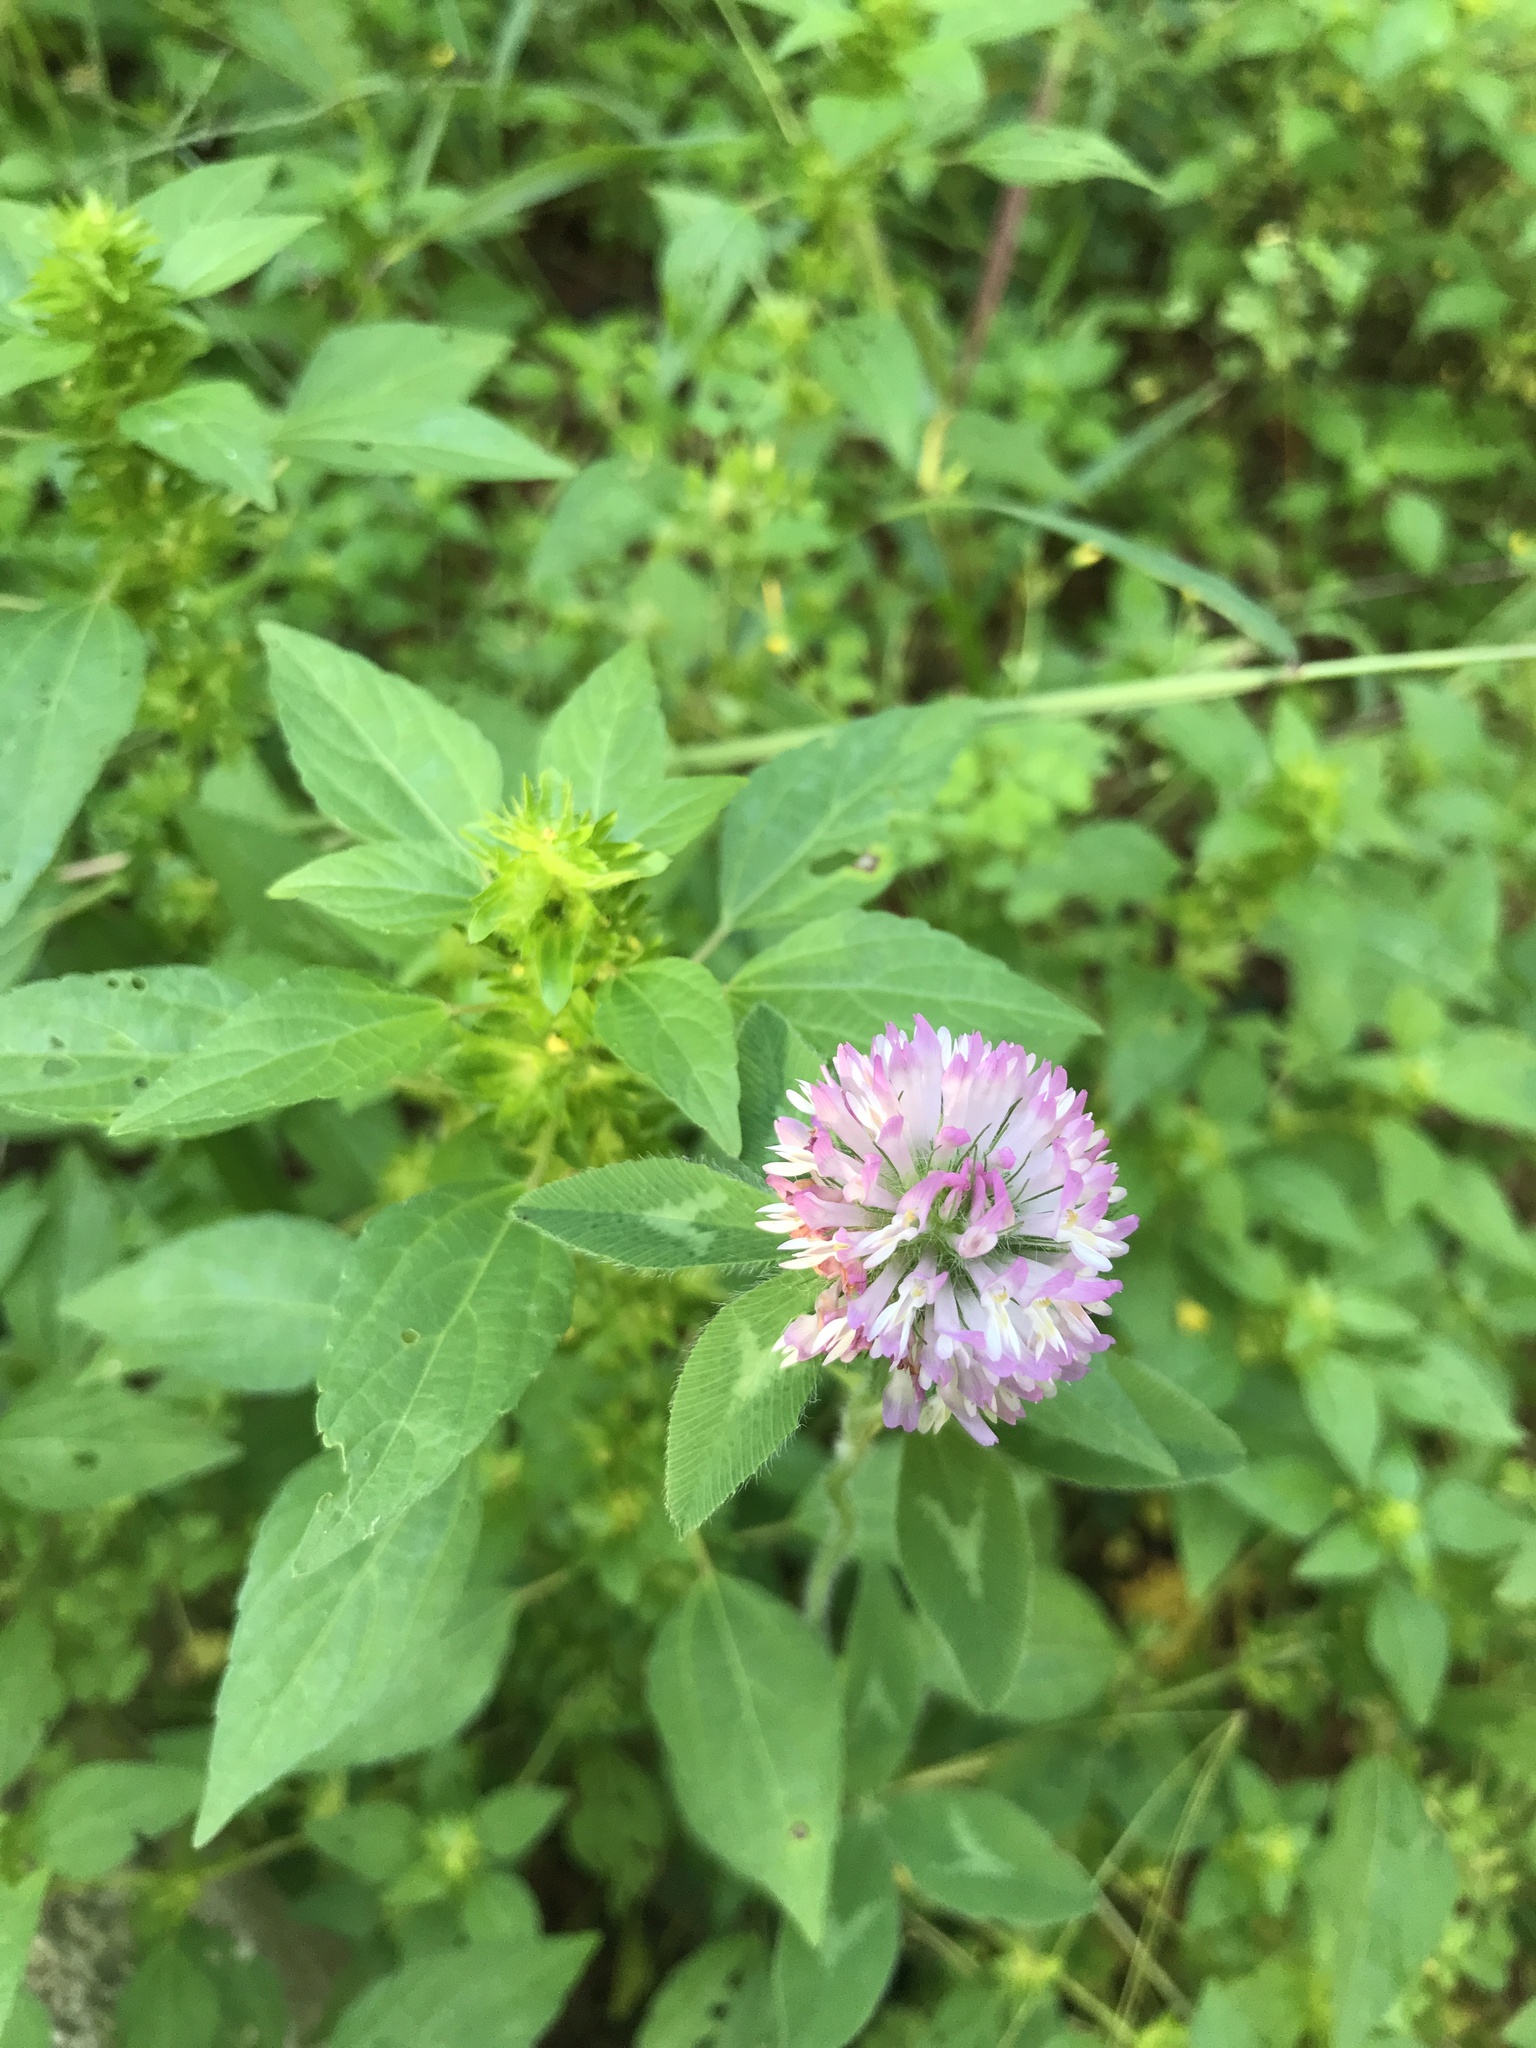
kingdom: Plantae
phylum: Tracheophyta
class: Magnoliopsida
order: Fabales
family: Fabaceae
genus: Trifolium
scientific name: Trifolium pratense
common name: Red clover
